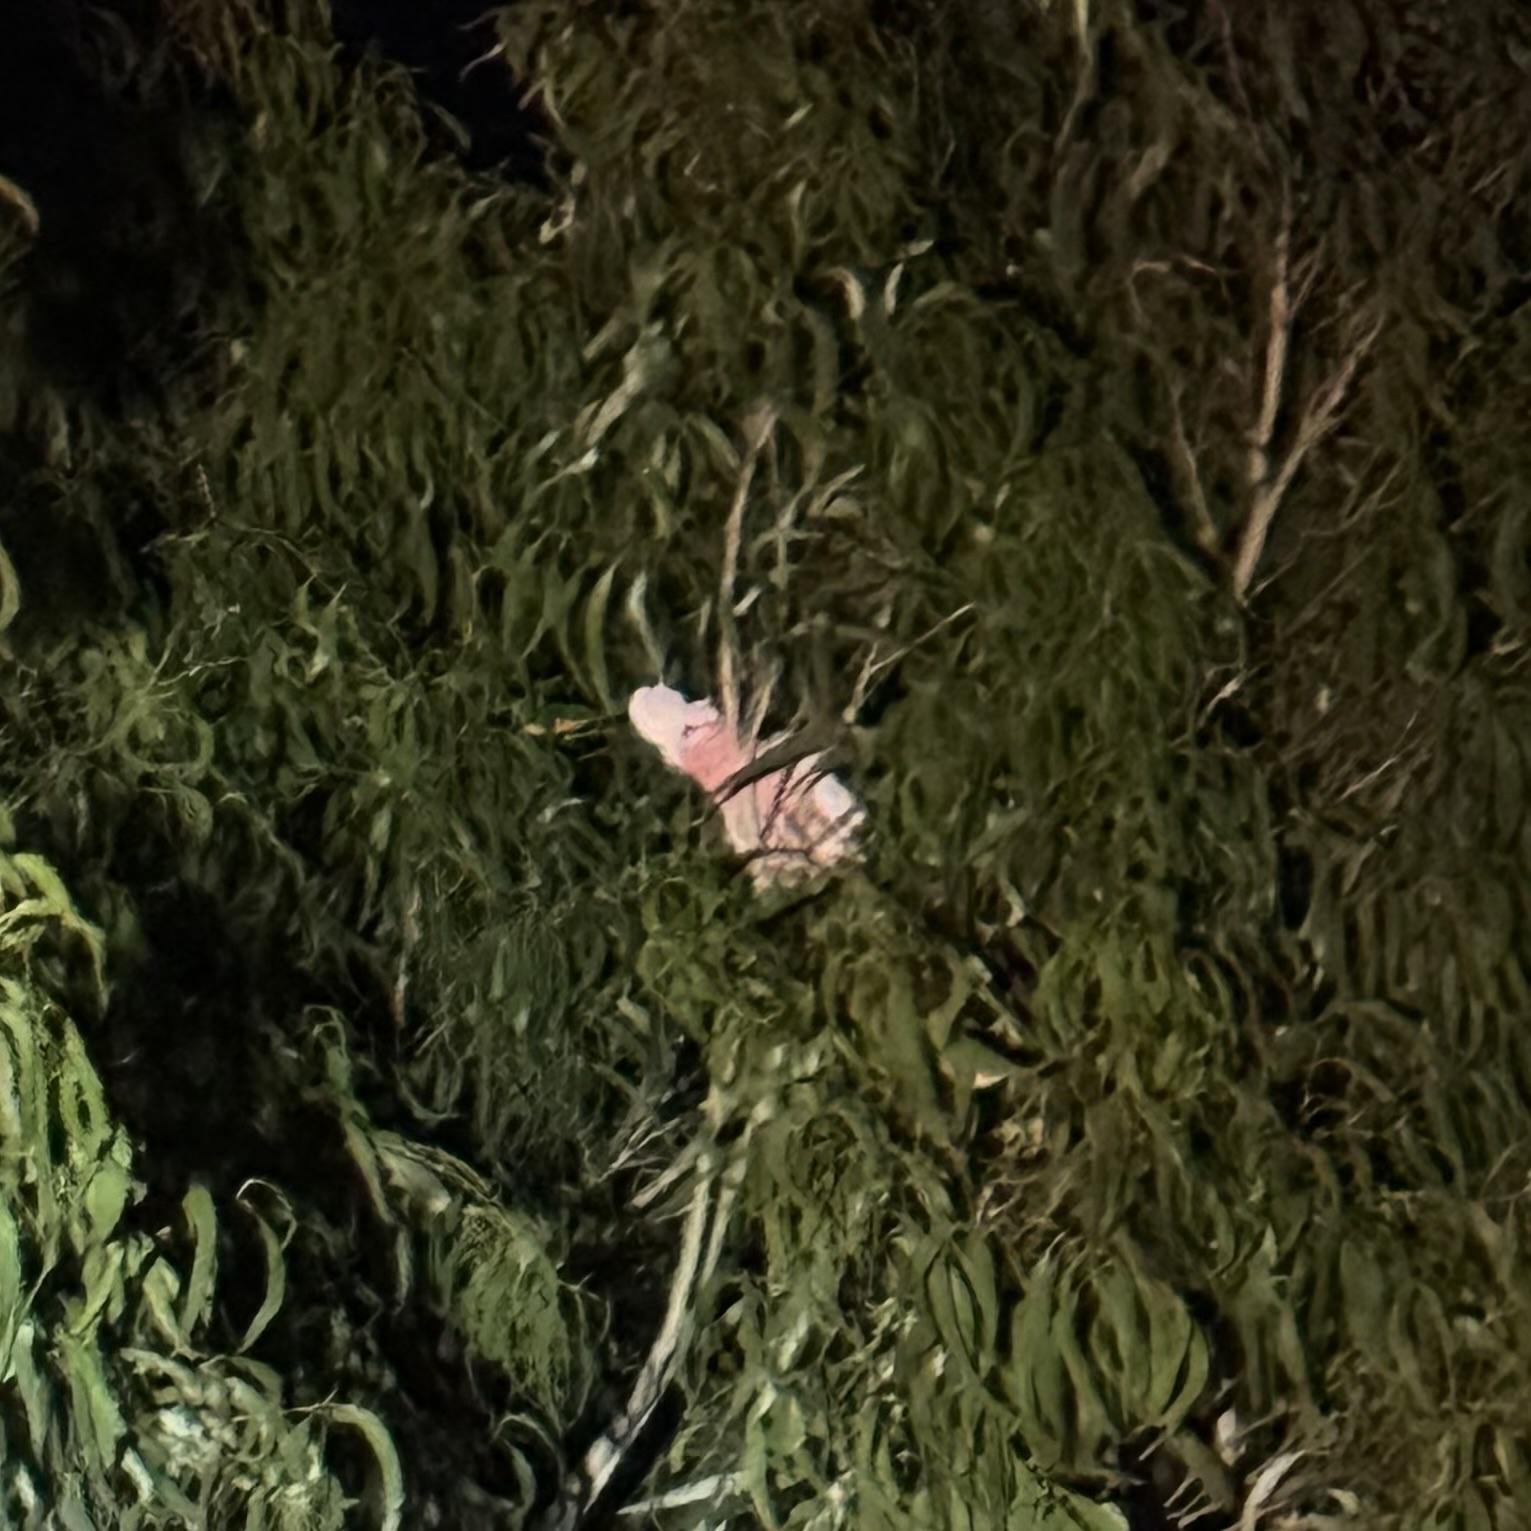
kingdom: Animalia
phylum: Chordata
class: Aves
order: Psittaciformes
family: Psittacidae
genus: Eolophus
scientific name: Eolophus roseicapilla
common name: Galah
